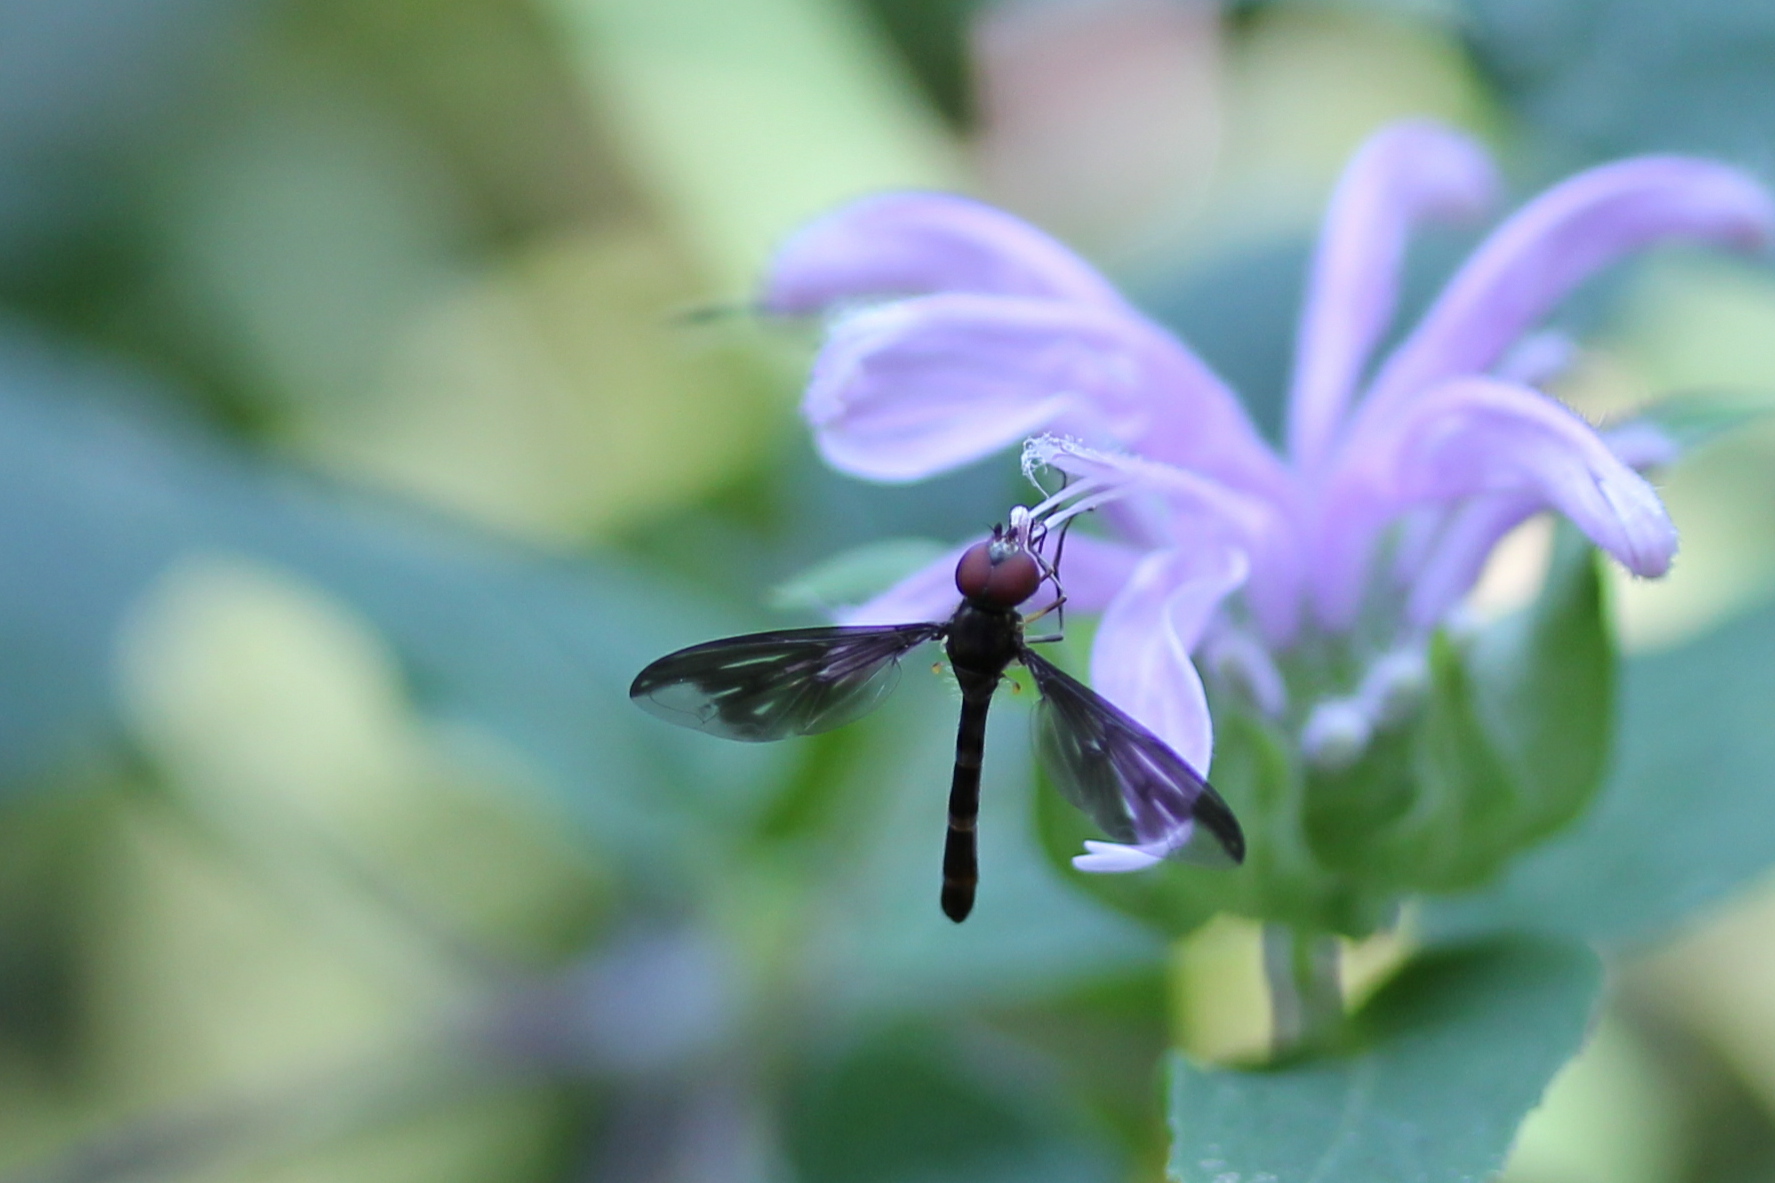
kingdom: Animalia
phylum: Arthropoda
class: Insecta
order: Diptera
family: Syrphidae
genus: Ocyptamus
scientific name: Ocyptamus fuscipennis
